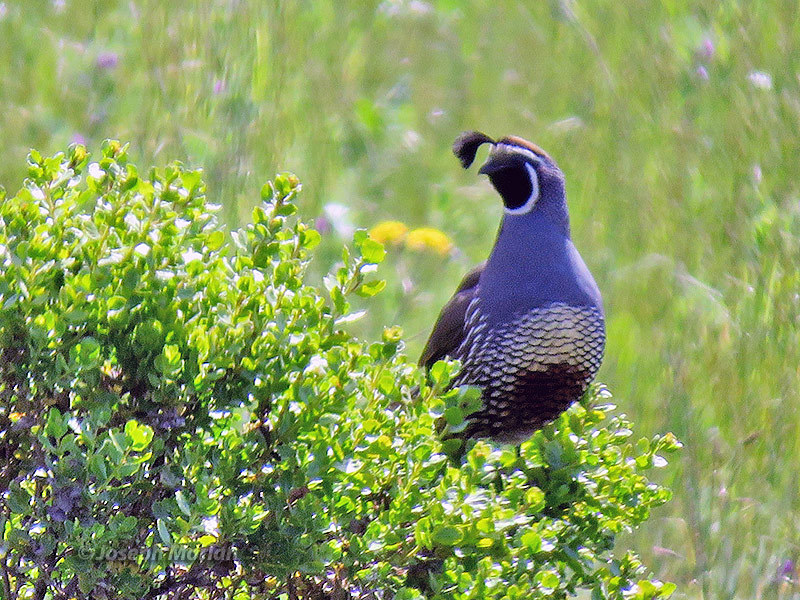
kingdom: Animalia
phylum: Chordata
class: Aves
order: Galliformes
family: Odontophoridae
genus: Callipepla
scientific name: Callipepla californica
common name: California quail
